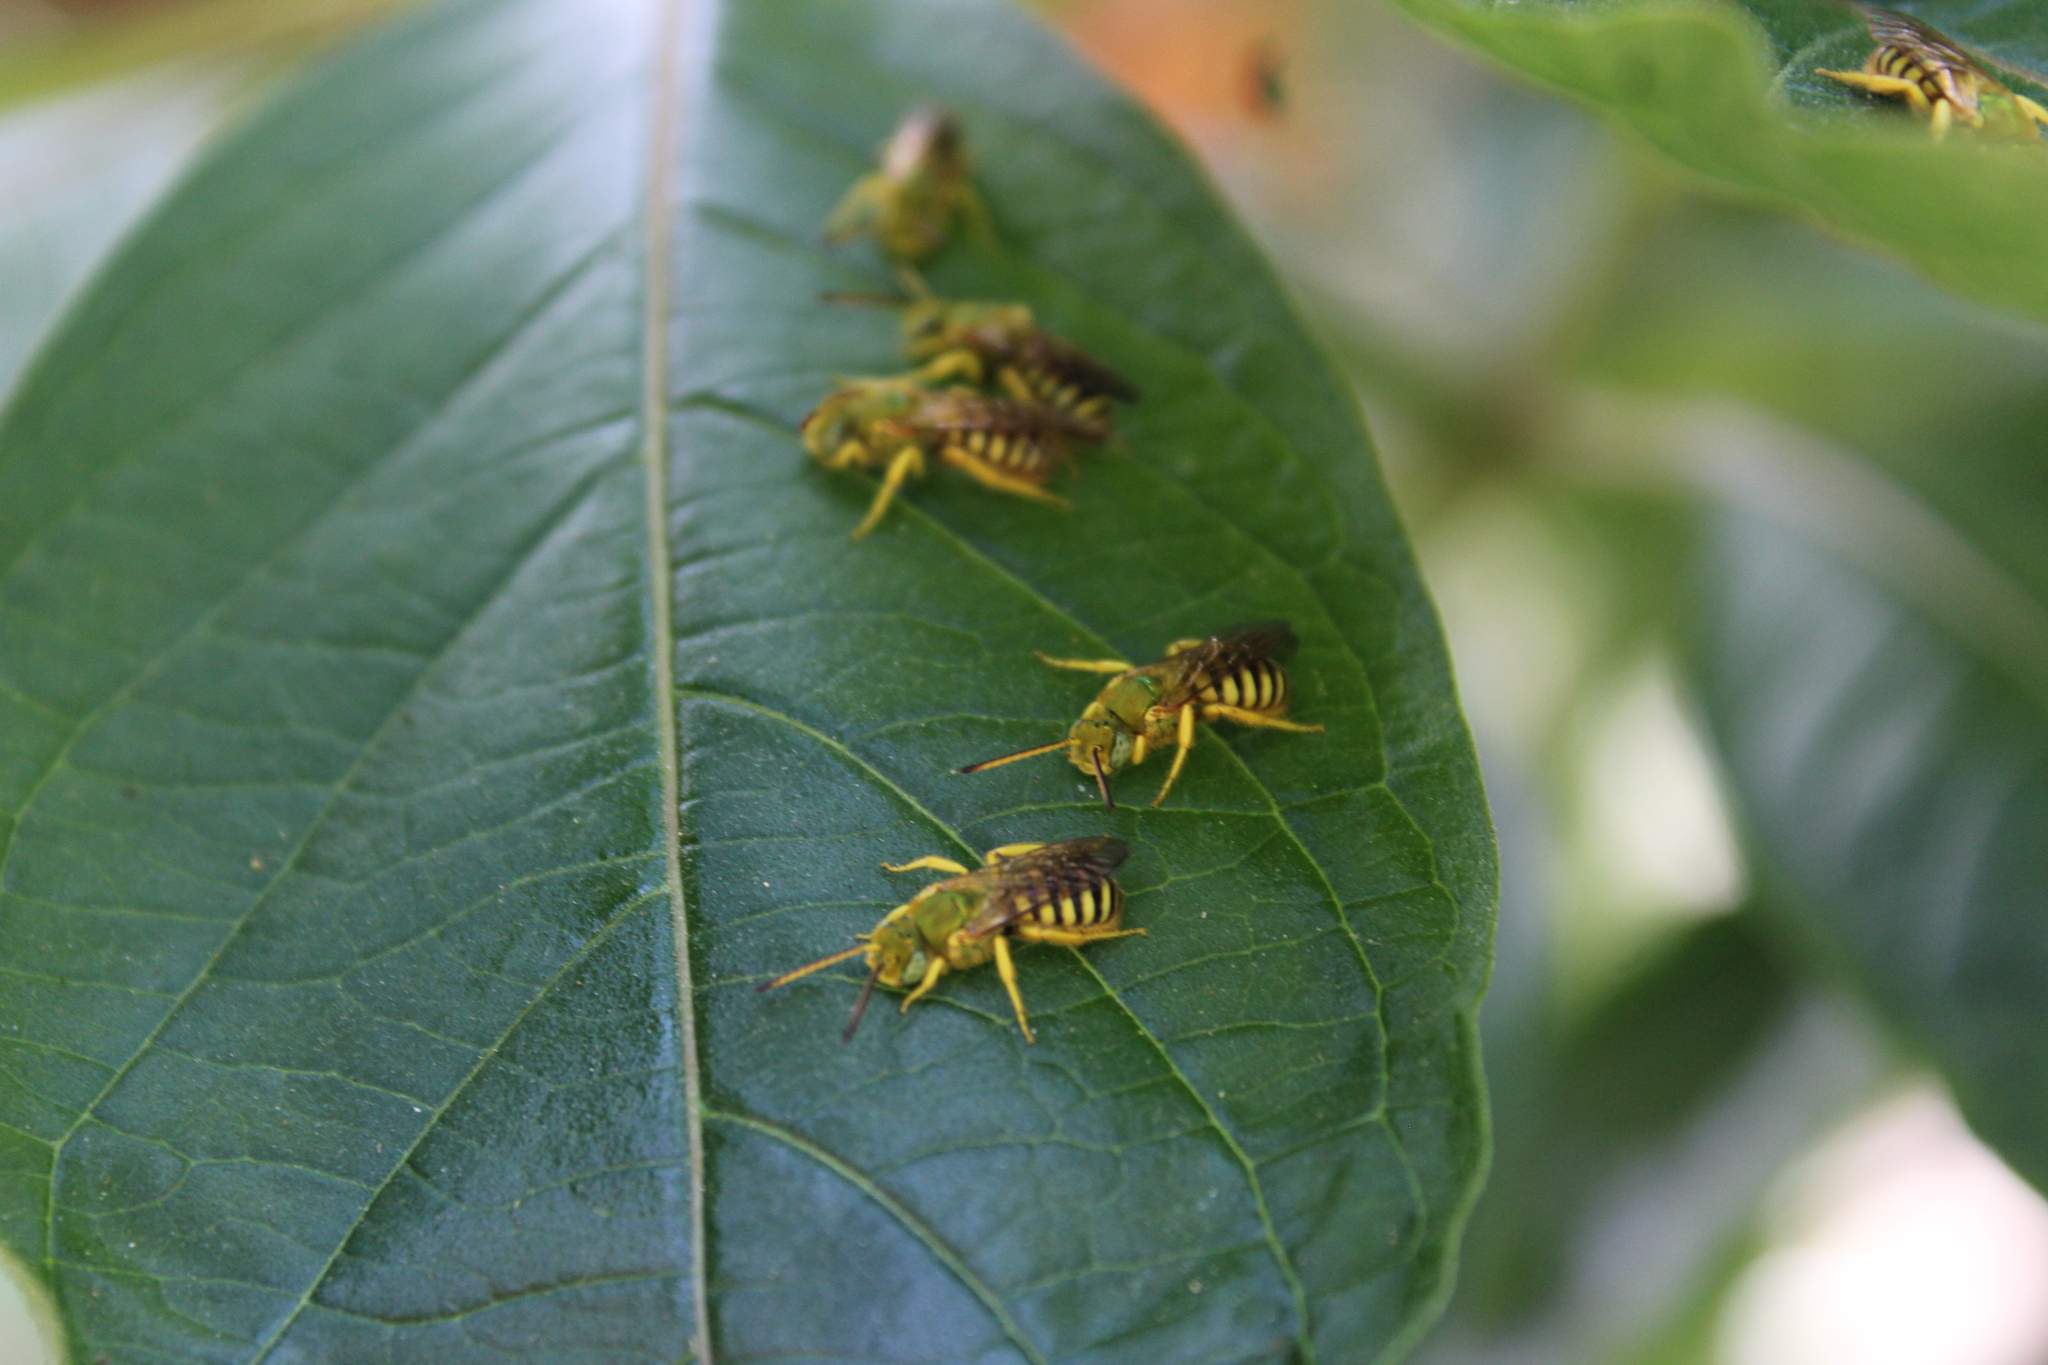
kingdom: Animalia
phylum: Arthropoda
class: Insecta
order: Hymenoptera
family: Halictidae
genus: Agapostemon
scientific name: Agapostemon nasutus
